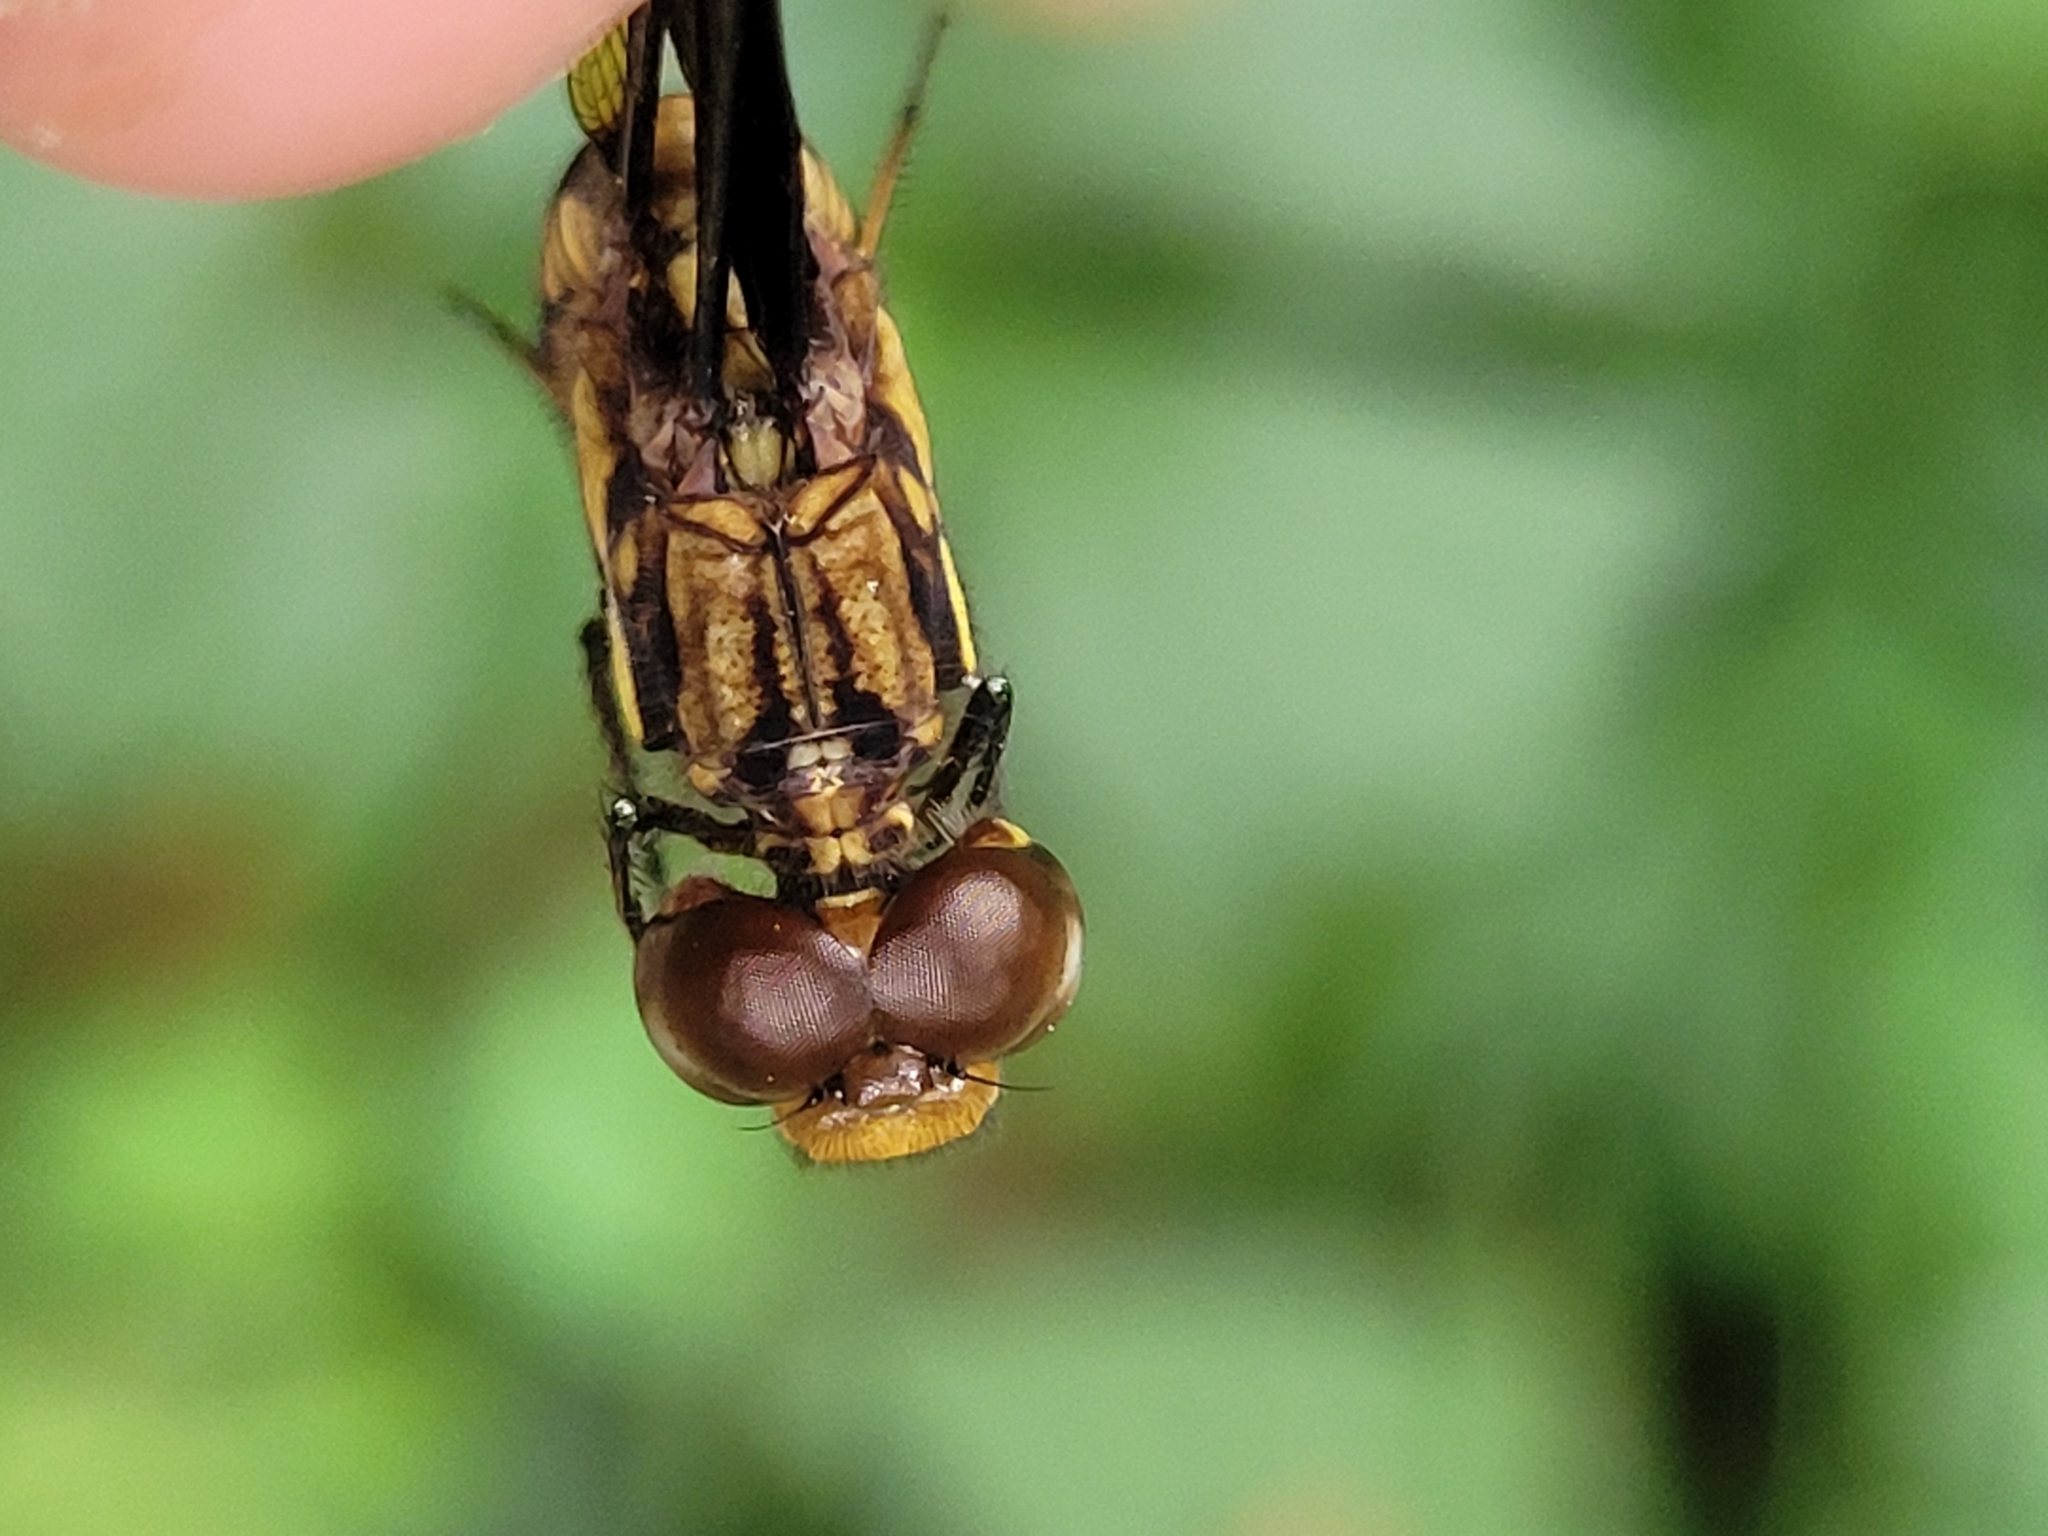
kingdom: Animalia
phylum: Arthropoda
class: Insecta
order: Odonata
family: Libellulidae
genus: Palpopleura
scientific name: Palpopleura lucia
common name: Lucia widow
